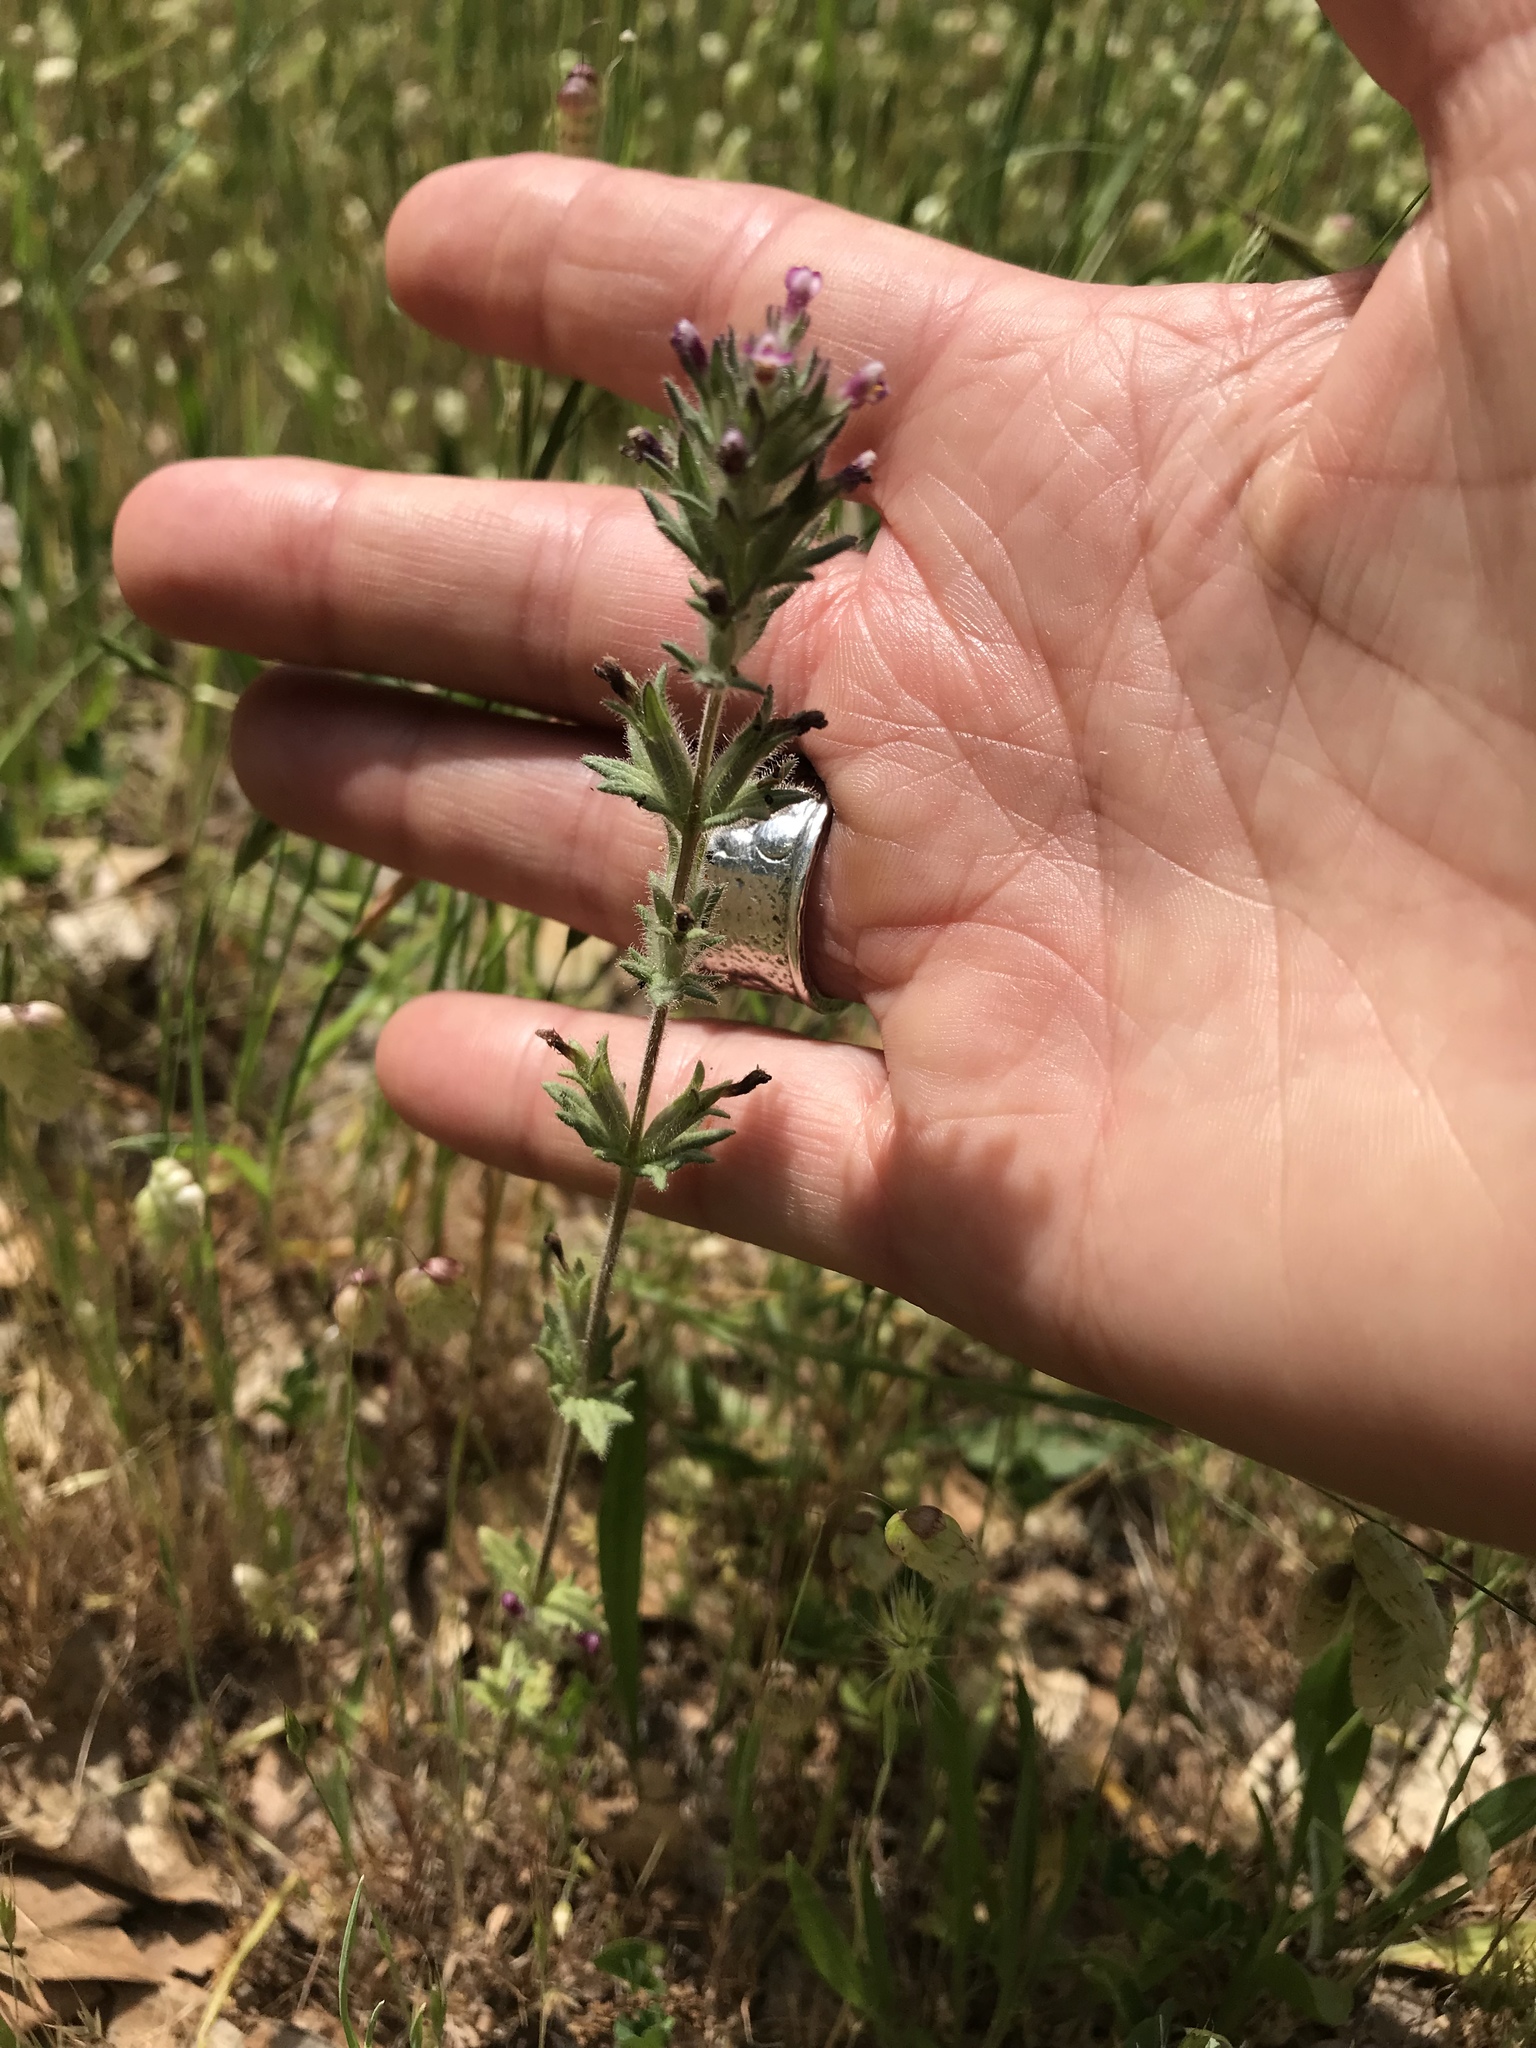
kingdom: Plantae
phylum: Tracheophyta
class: Magnoliopsida
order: Lamiales
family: Orobanchaceae
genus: Parentucellia
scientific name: Parentucellia latifolia
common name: Broadleaf glandweed
